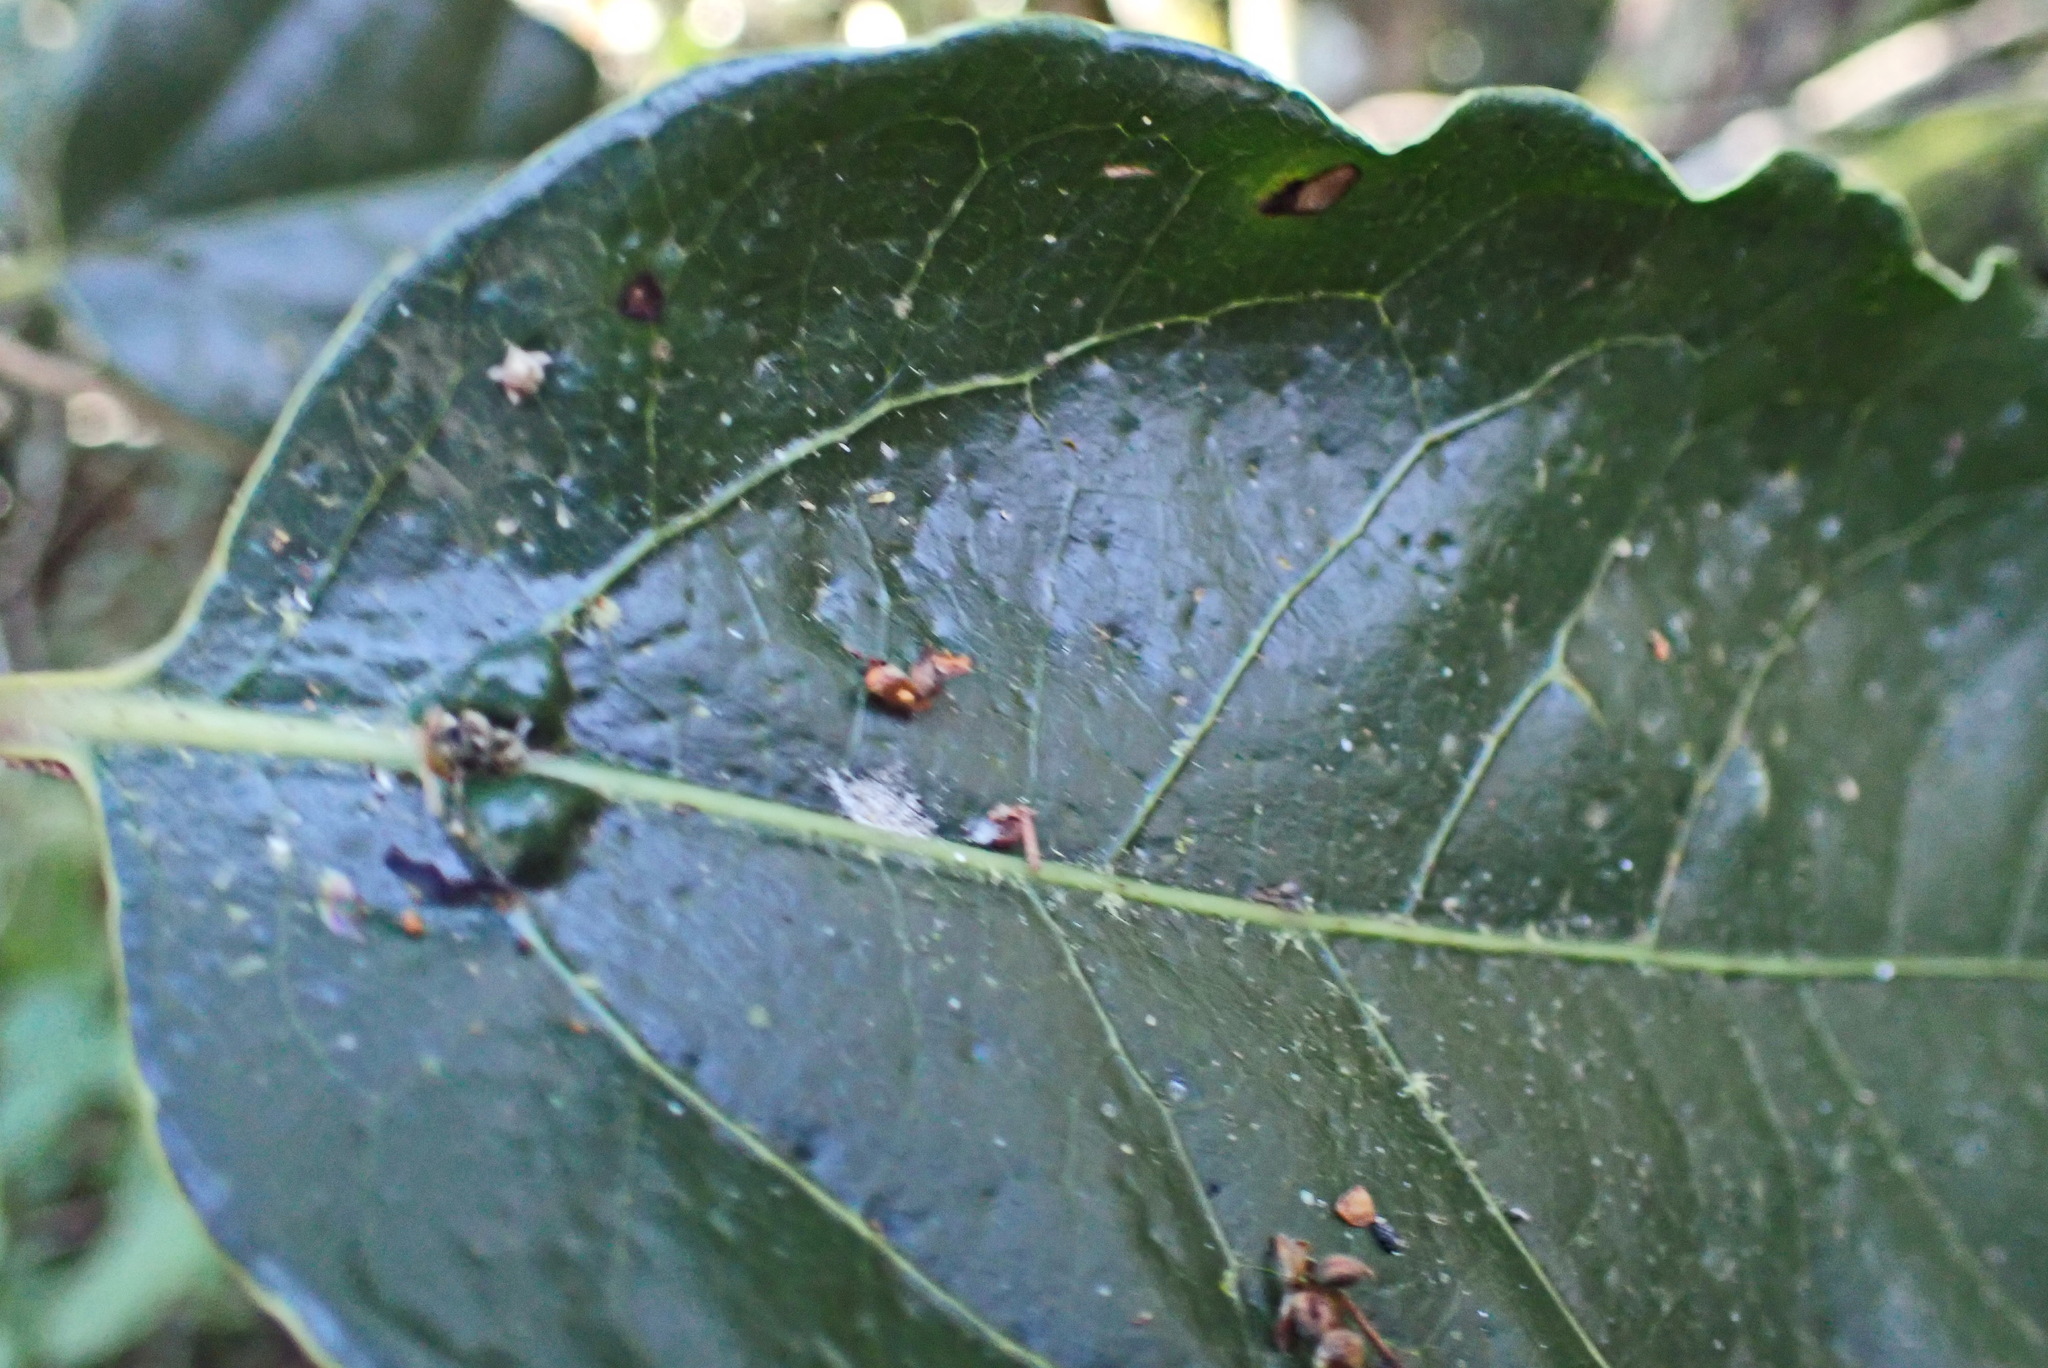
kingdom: Plantae
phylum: Tracheophyta
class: Magnoliopsida
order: Laurales
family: Lauraceae
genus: Ocotea
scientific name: Ocotea bullata
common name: Black stinkwood
